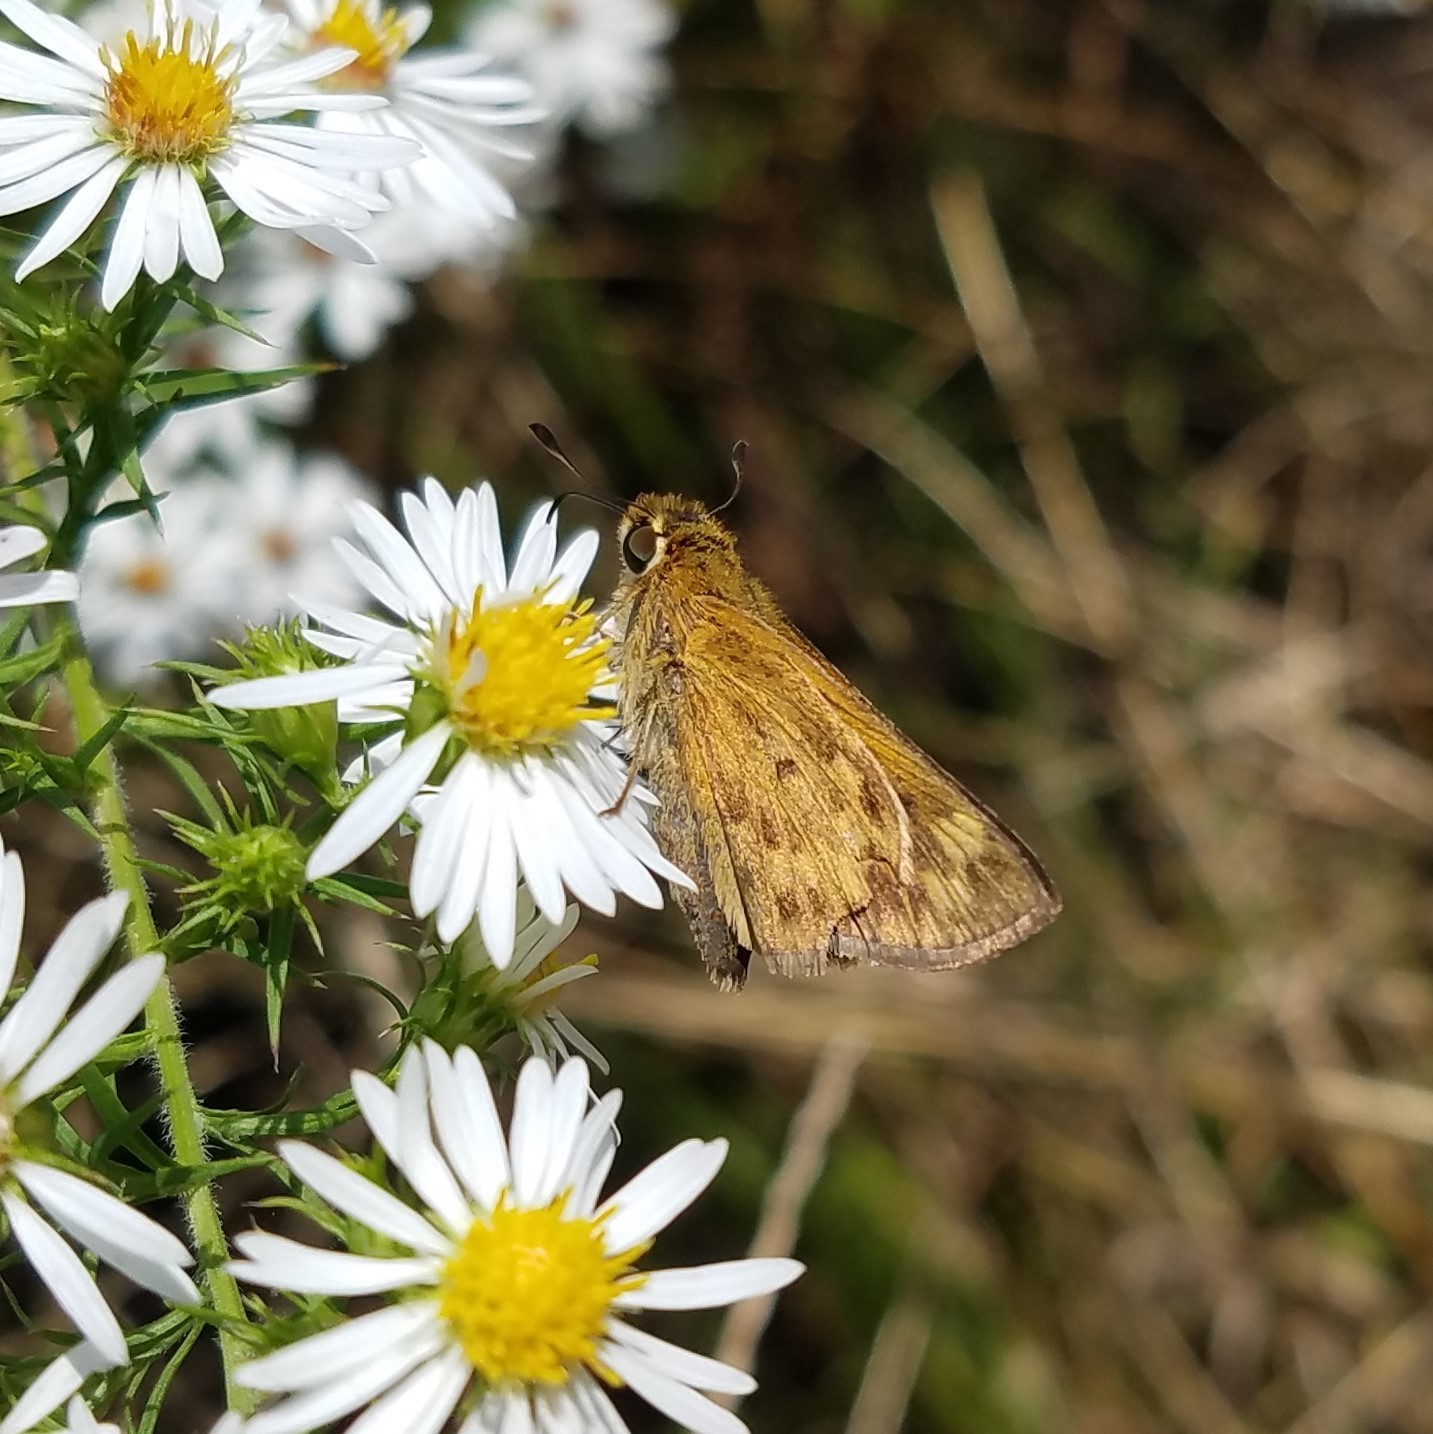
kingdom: Animalia
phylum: Arthropoda
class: Insecta
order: Lepidoptera
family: Hesperiidae
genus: Hylephila
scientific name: Hylephila phyleus
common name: Fiery skipper
